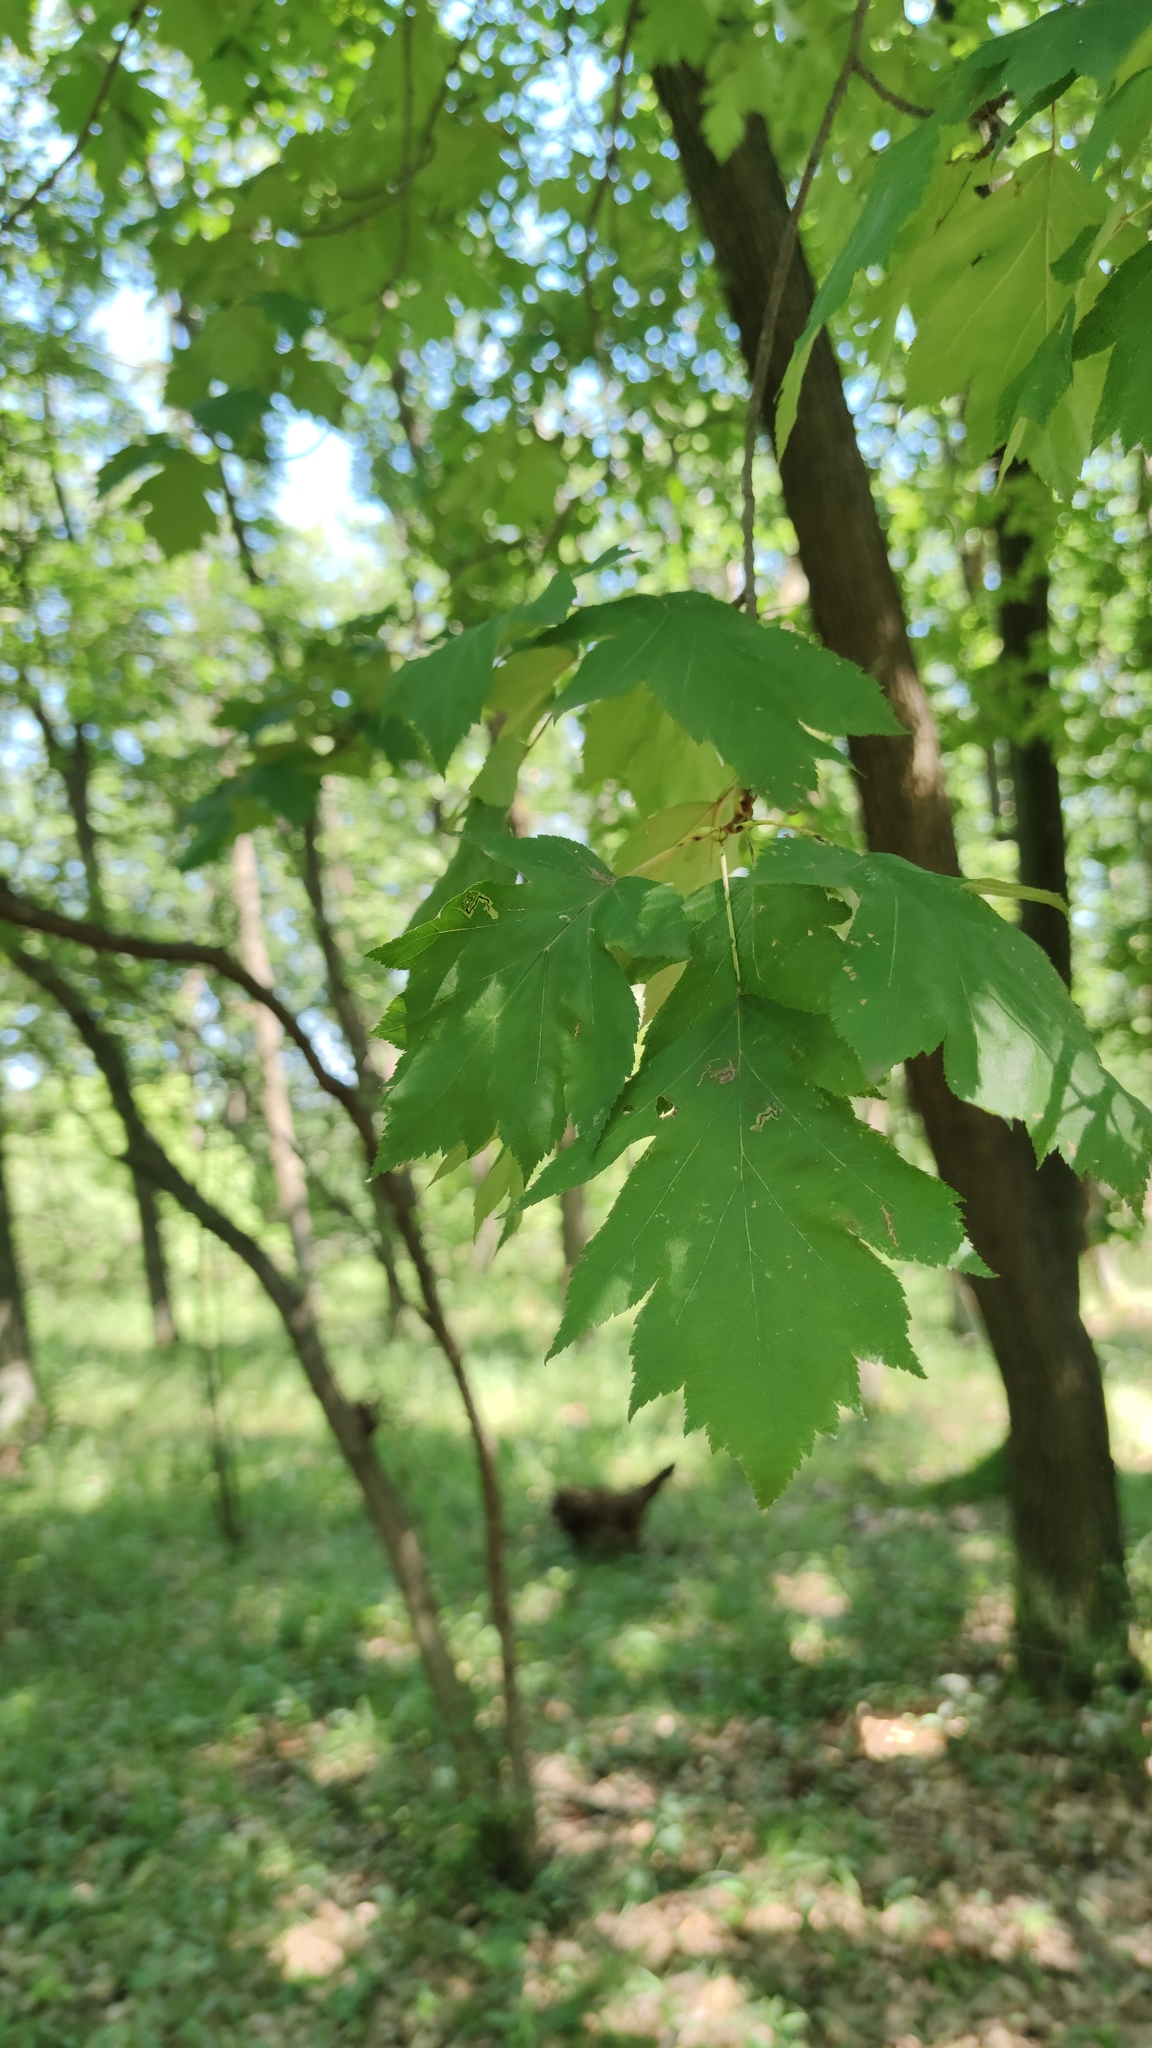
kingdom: Plantae
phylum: Tracheophyta
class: Magnoliopsida
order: Rosales
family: Rosaceae
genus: Torminalis
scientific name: Torminalis glaberrima
